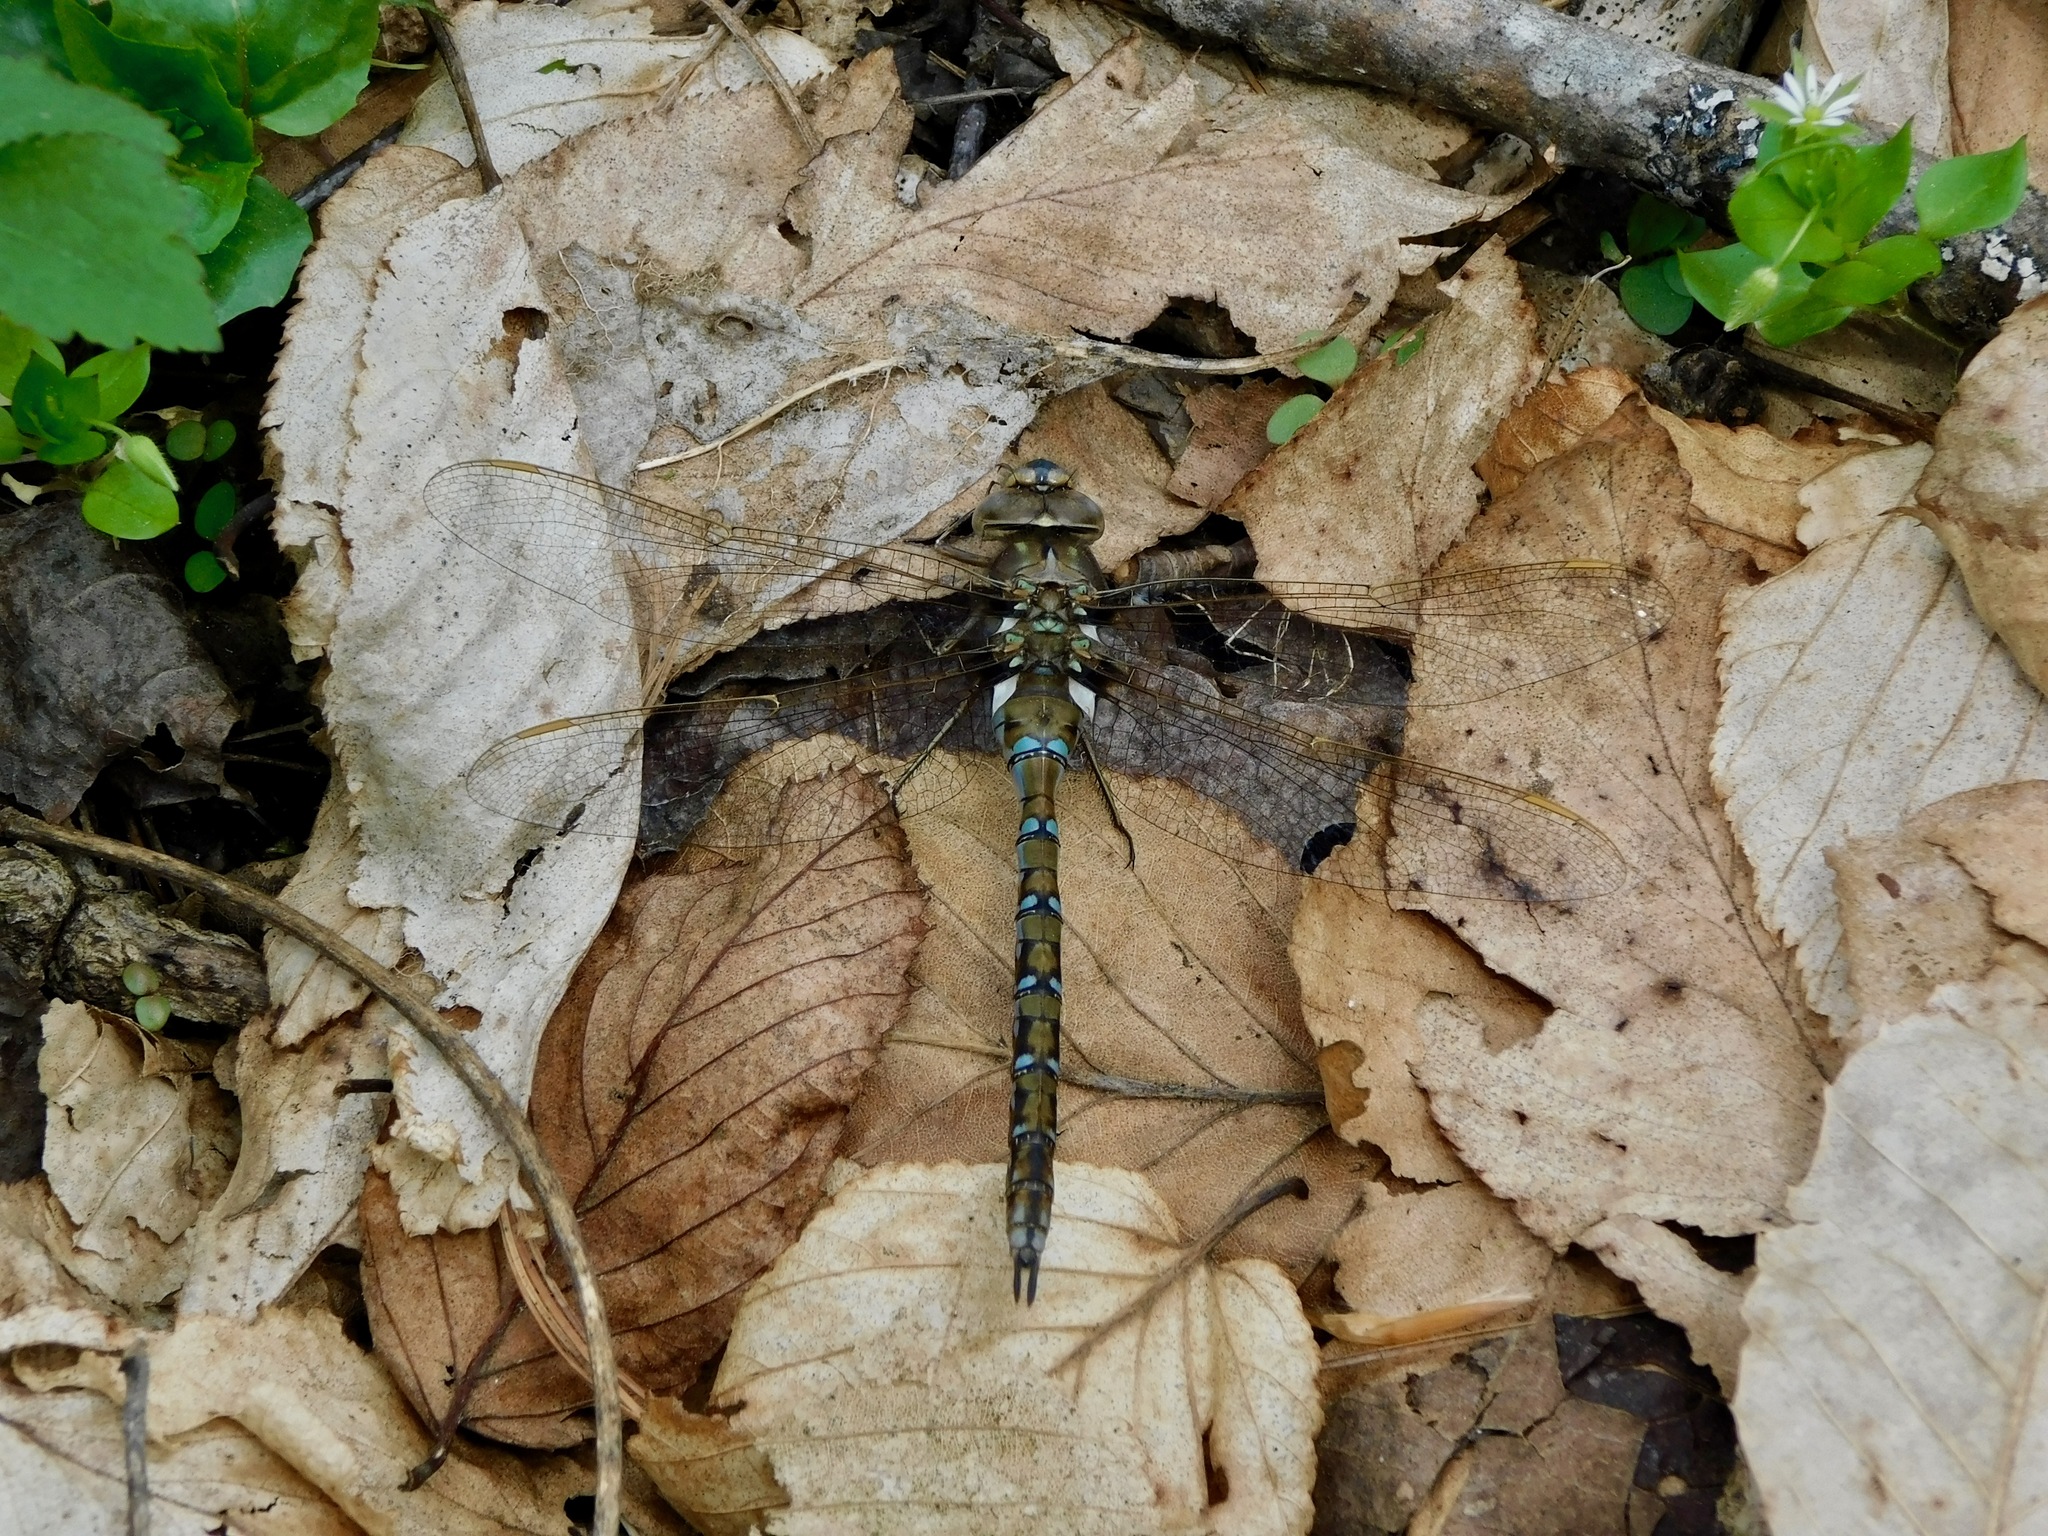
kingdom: Animalia
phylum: Arthropoda
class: Insecta
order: Odonata
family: Aeshnidae
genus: Basiaeschna
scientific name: Basiaeschna janata
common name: Springtime darner
